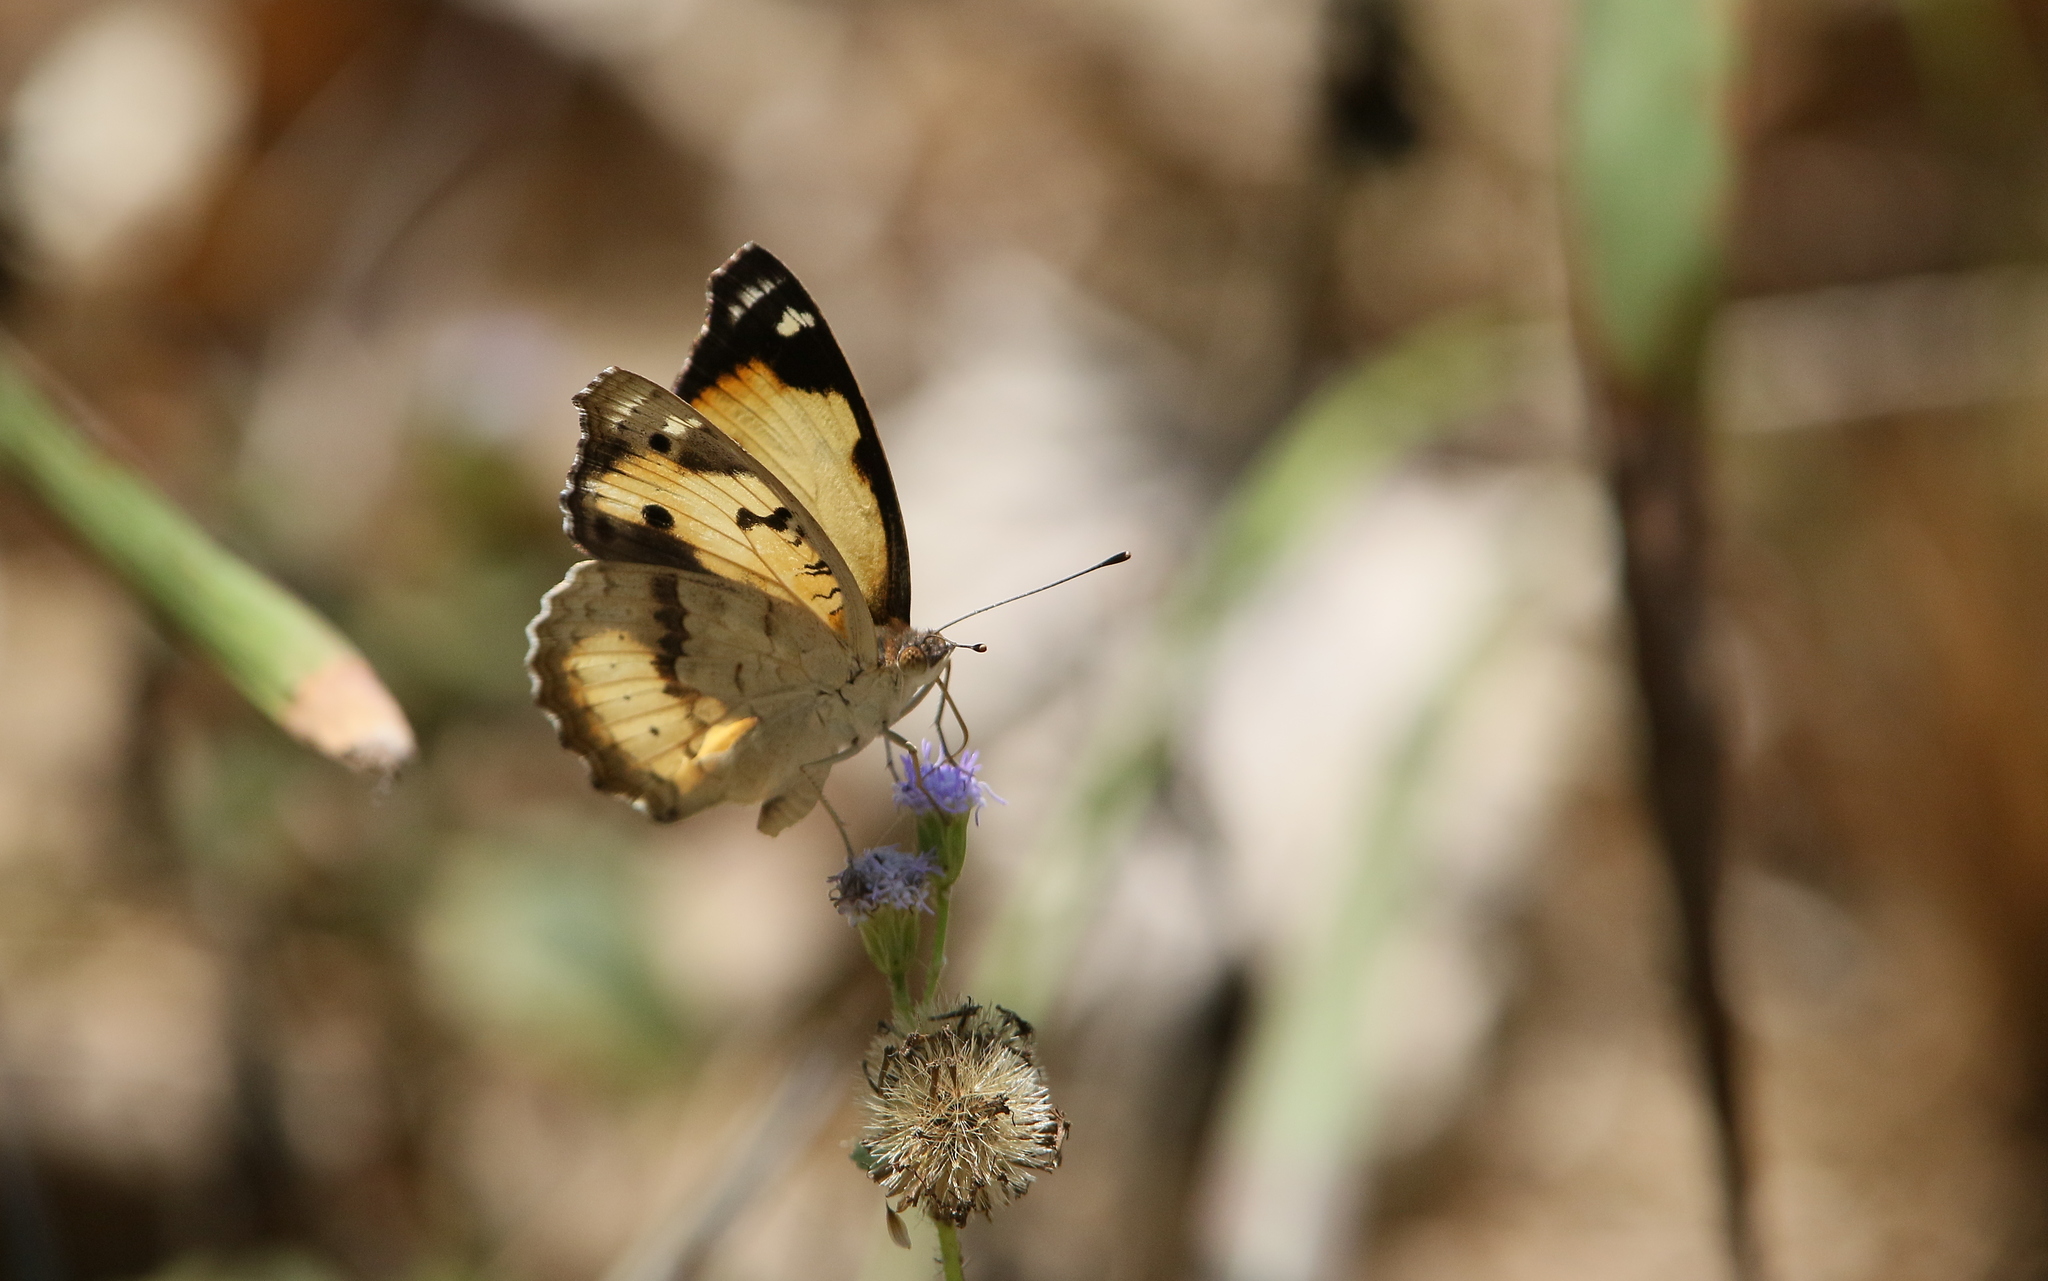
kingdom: Animalia
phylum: Arthropoda
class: Insecta
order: Lepidoptera
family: Nymphalidae
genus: Junonia
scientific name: Junonia hierta
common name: Yellow pansy
